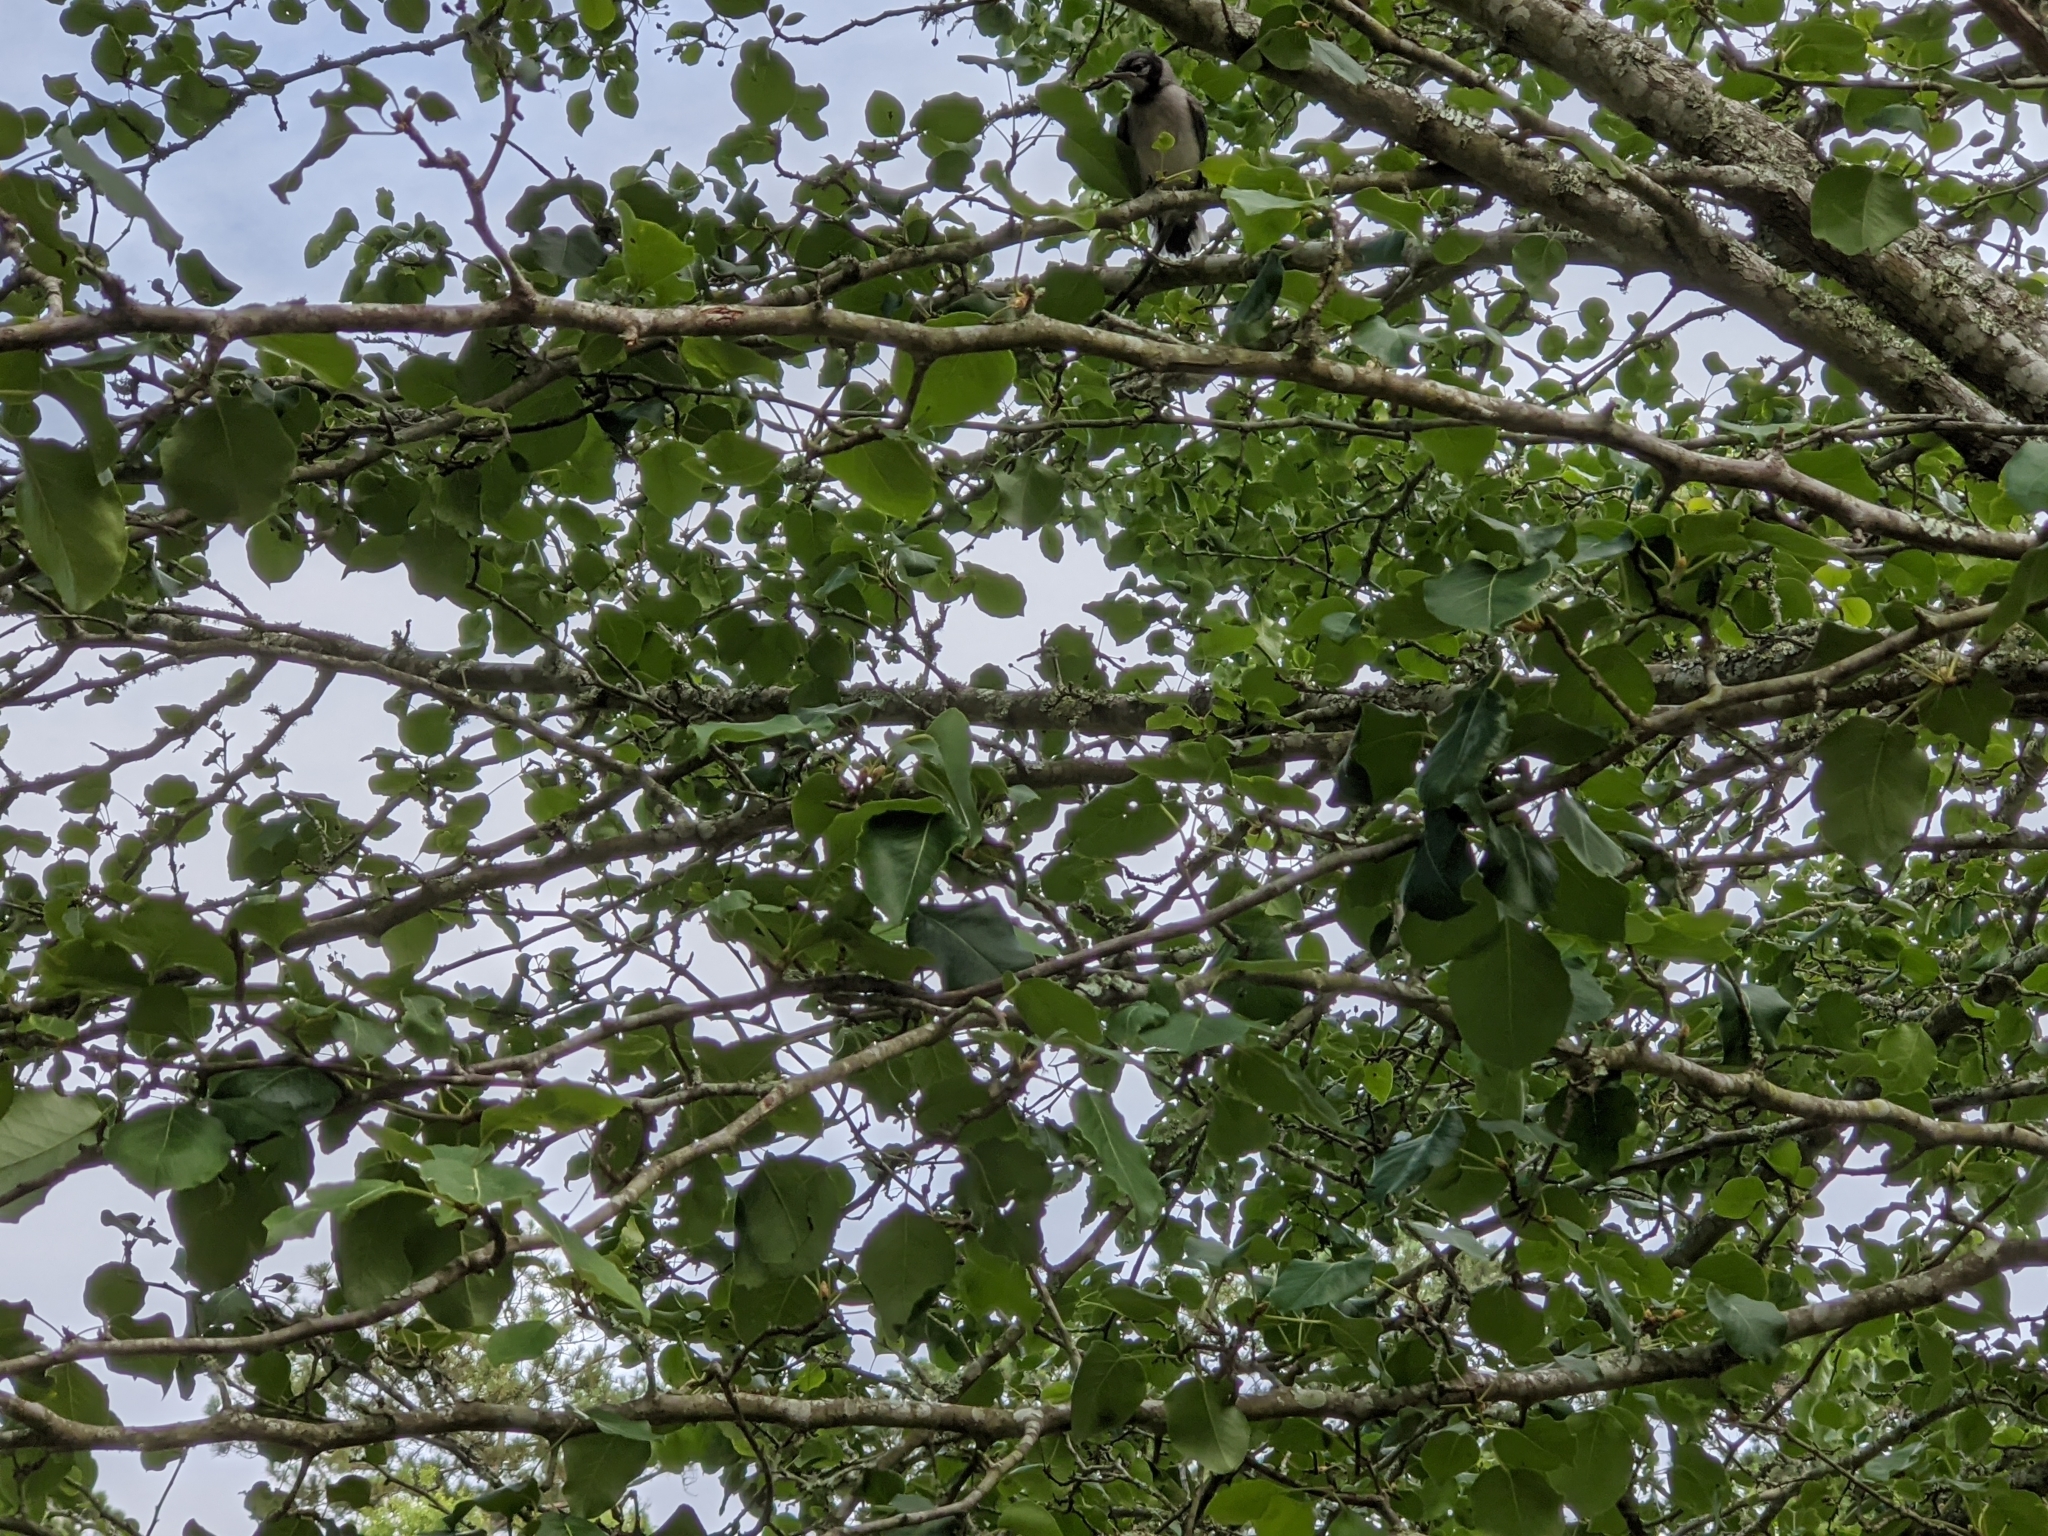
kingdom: Animalia
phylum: Chordata
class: Aves
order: Passeriformes
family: Corvidae
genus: Cyanocitta
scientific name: Cyanocitta cristata
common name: Blue jay
